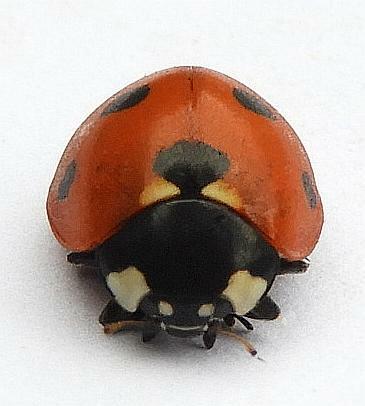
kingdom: Animalia
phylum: Arthropoda
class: Insecta
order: Coleoptera
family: Coccinellidae
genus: Coccinella
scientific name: Coccinella septempunctata
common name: Sevenspotted lady beetle
